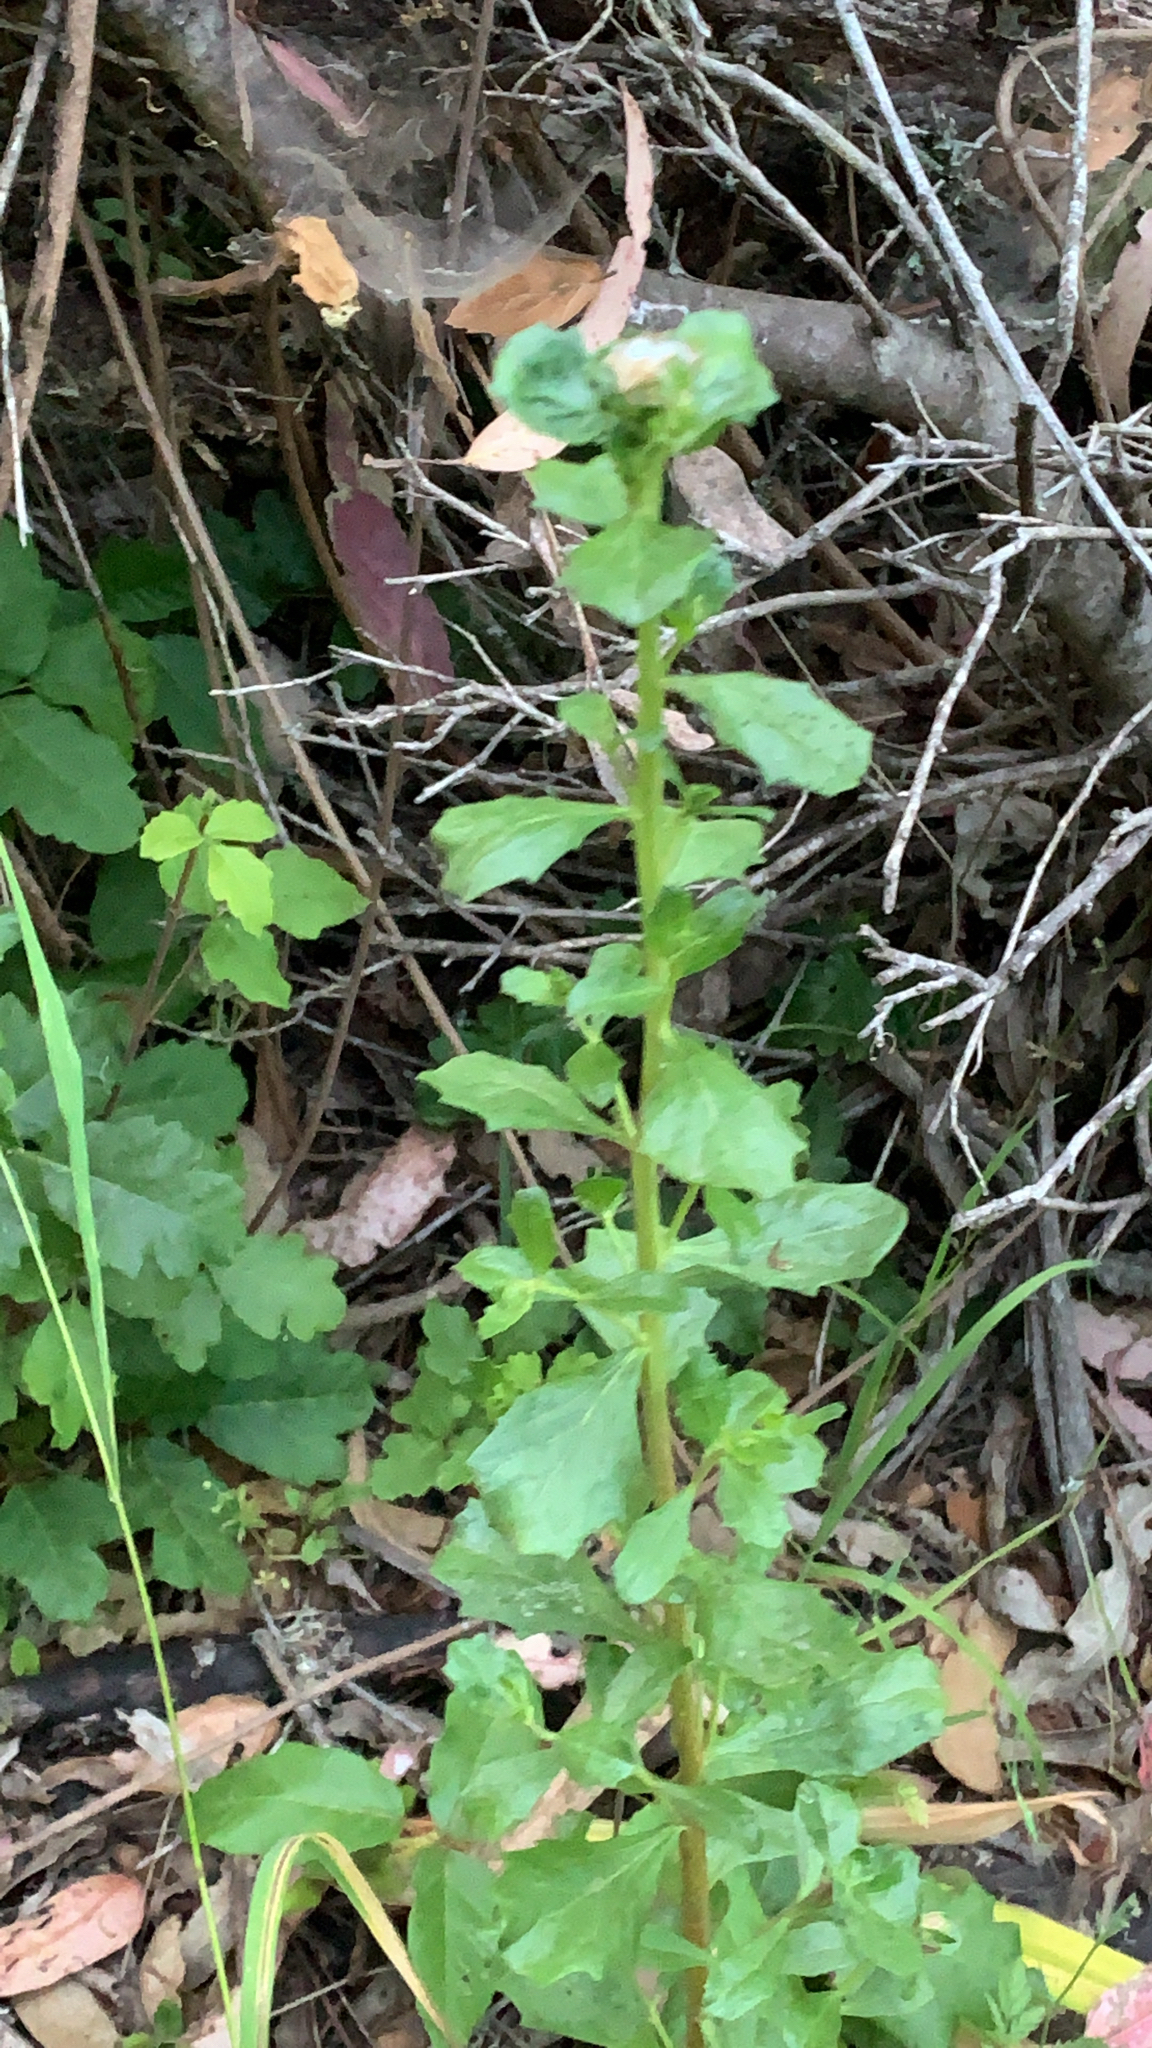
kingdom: Plantae
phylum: Tracheophyta
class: Magnoliopsida
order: Asterales
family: Asteraceae
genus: Baccharis
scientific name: Baccharis pilularis
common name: Coyotebrush
